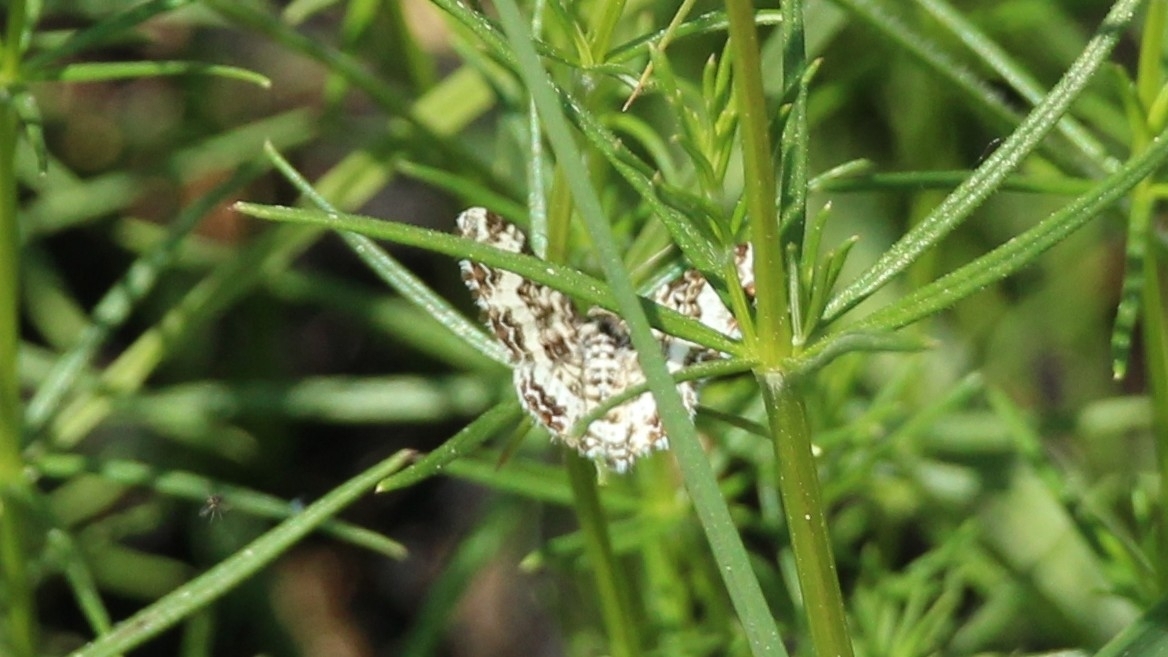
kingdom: Animalia
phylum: Arthropoda
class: Insecta
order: Lepidoptera
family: Geometridae
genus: Epirrhoe
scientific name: Epirrhoe alternata
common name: Common carpet
